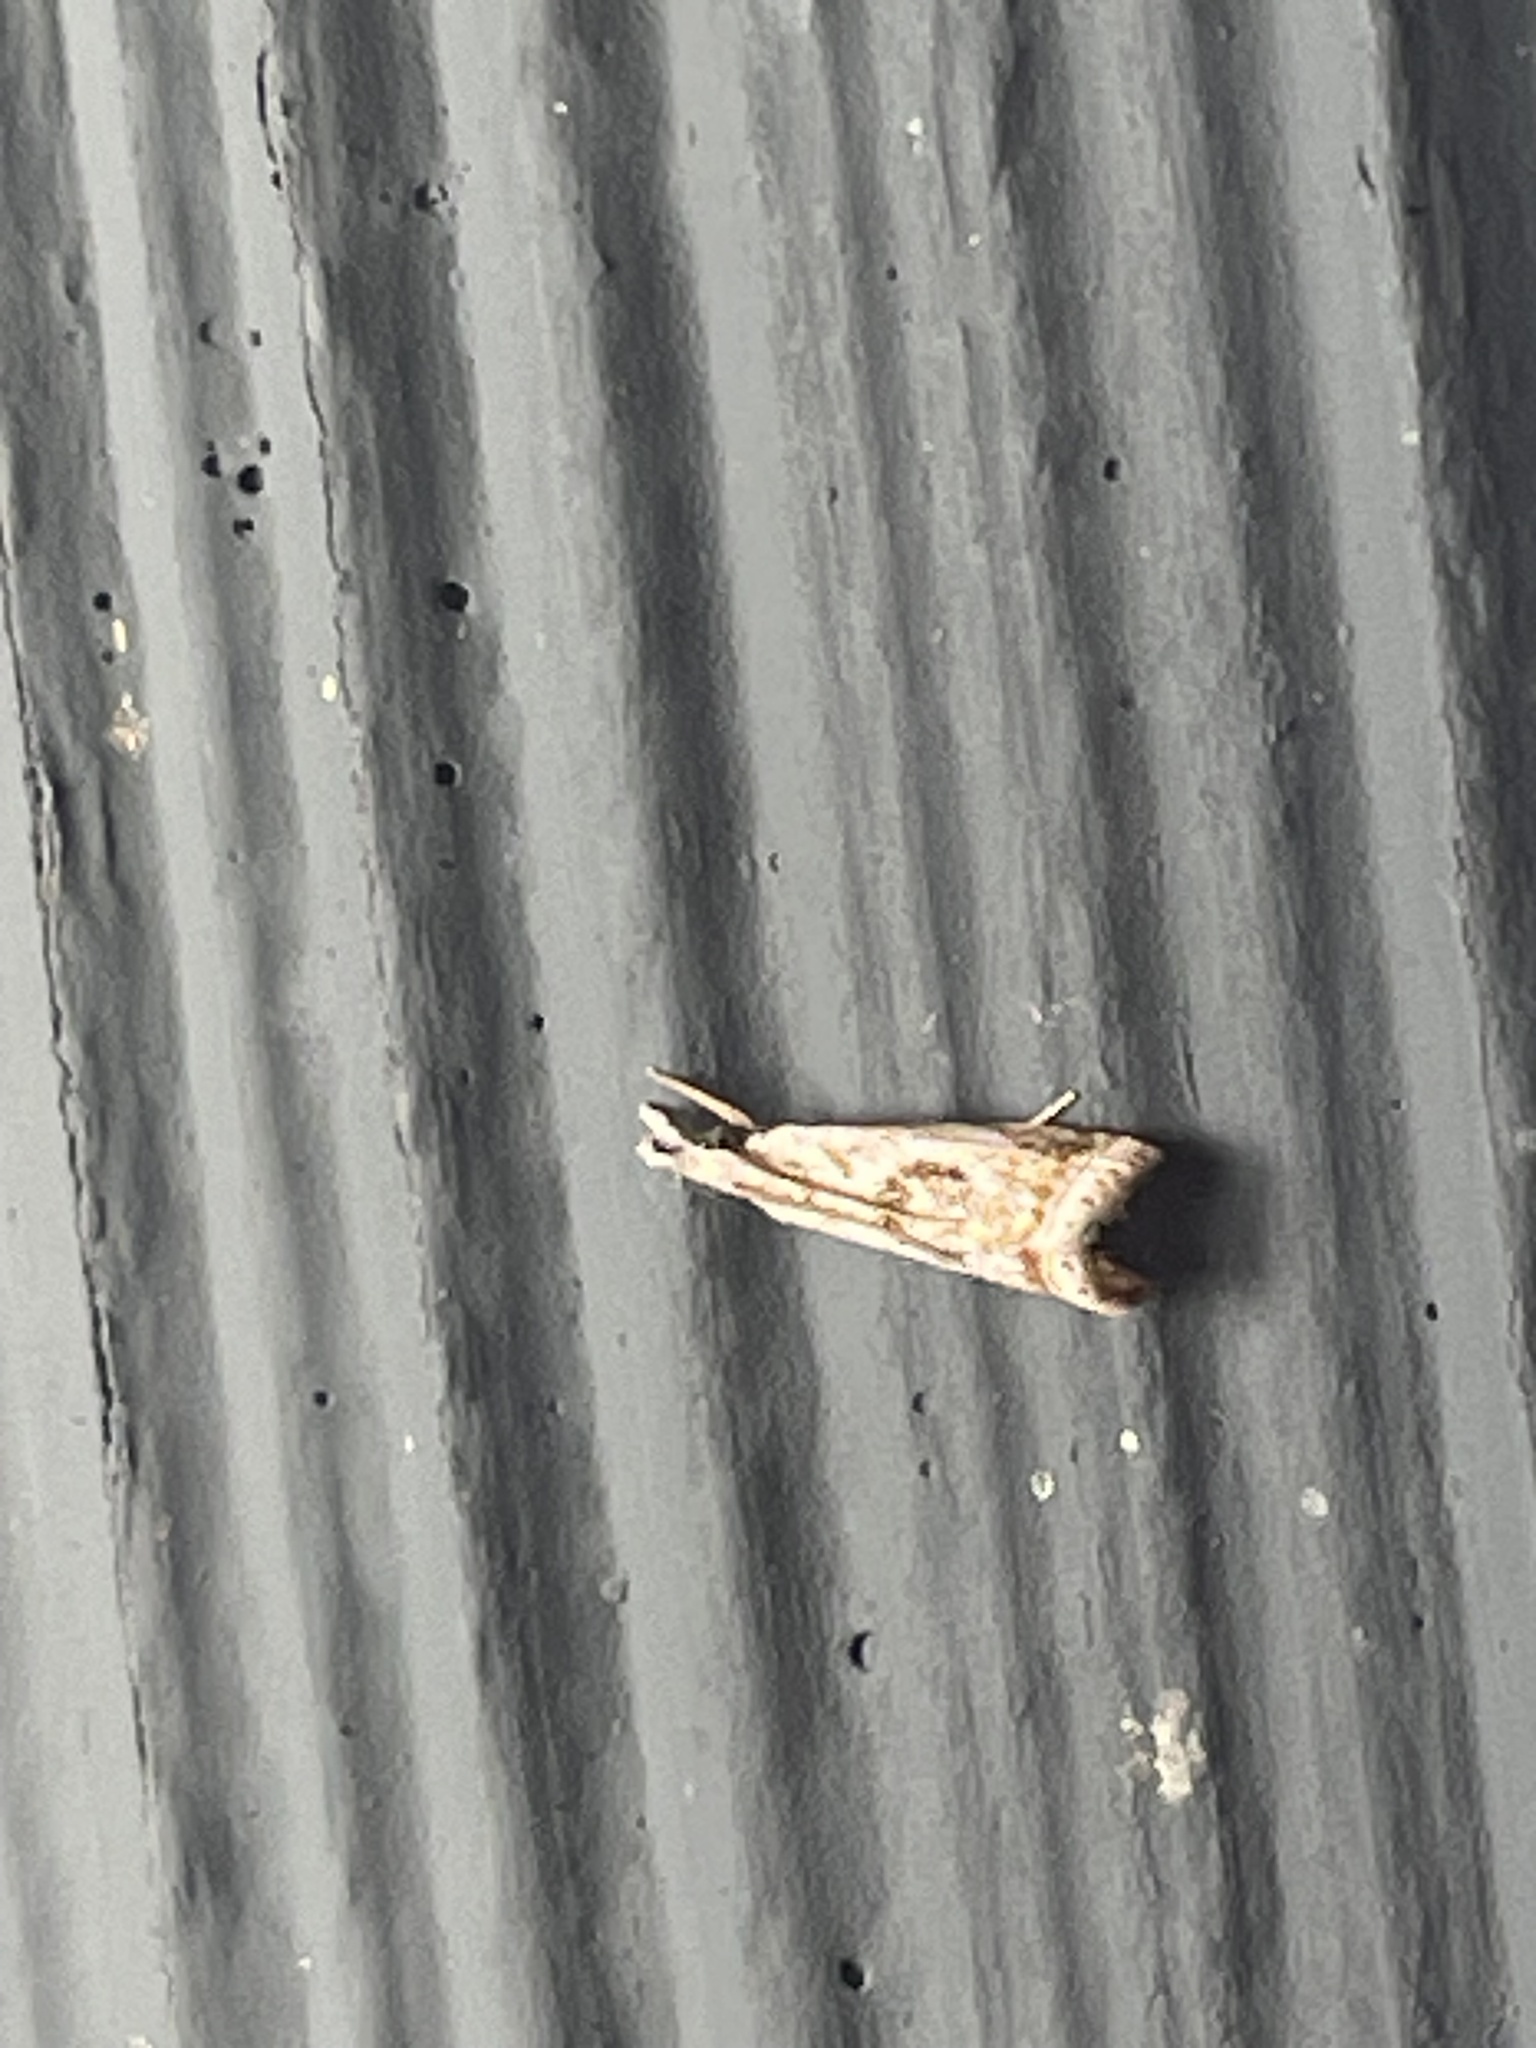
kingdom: Animalia
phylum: Arthropoda
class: Insecta
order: Lepidoptera
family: Crambidae
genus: Microcrambus
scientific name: Microcrambus elegans
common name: Elegant grass-veneer
